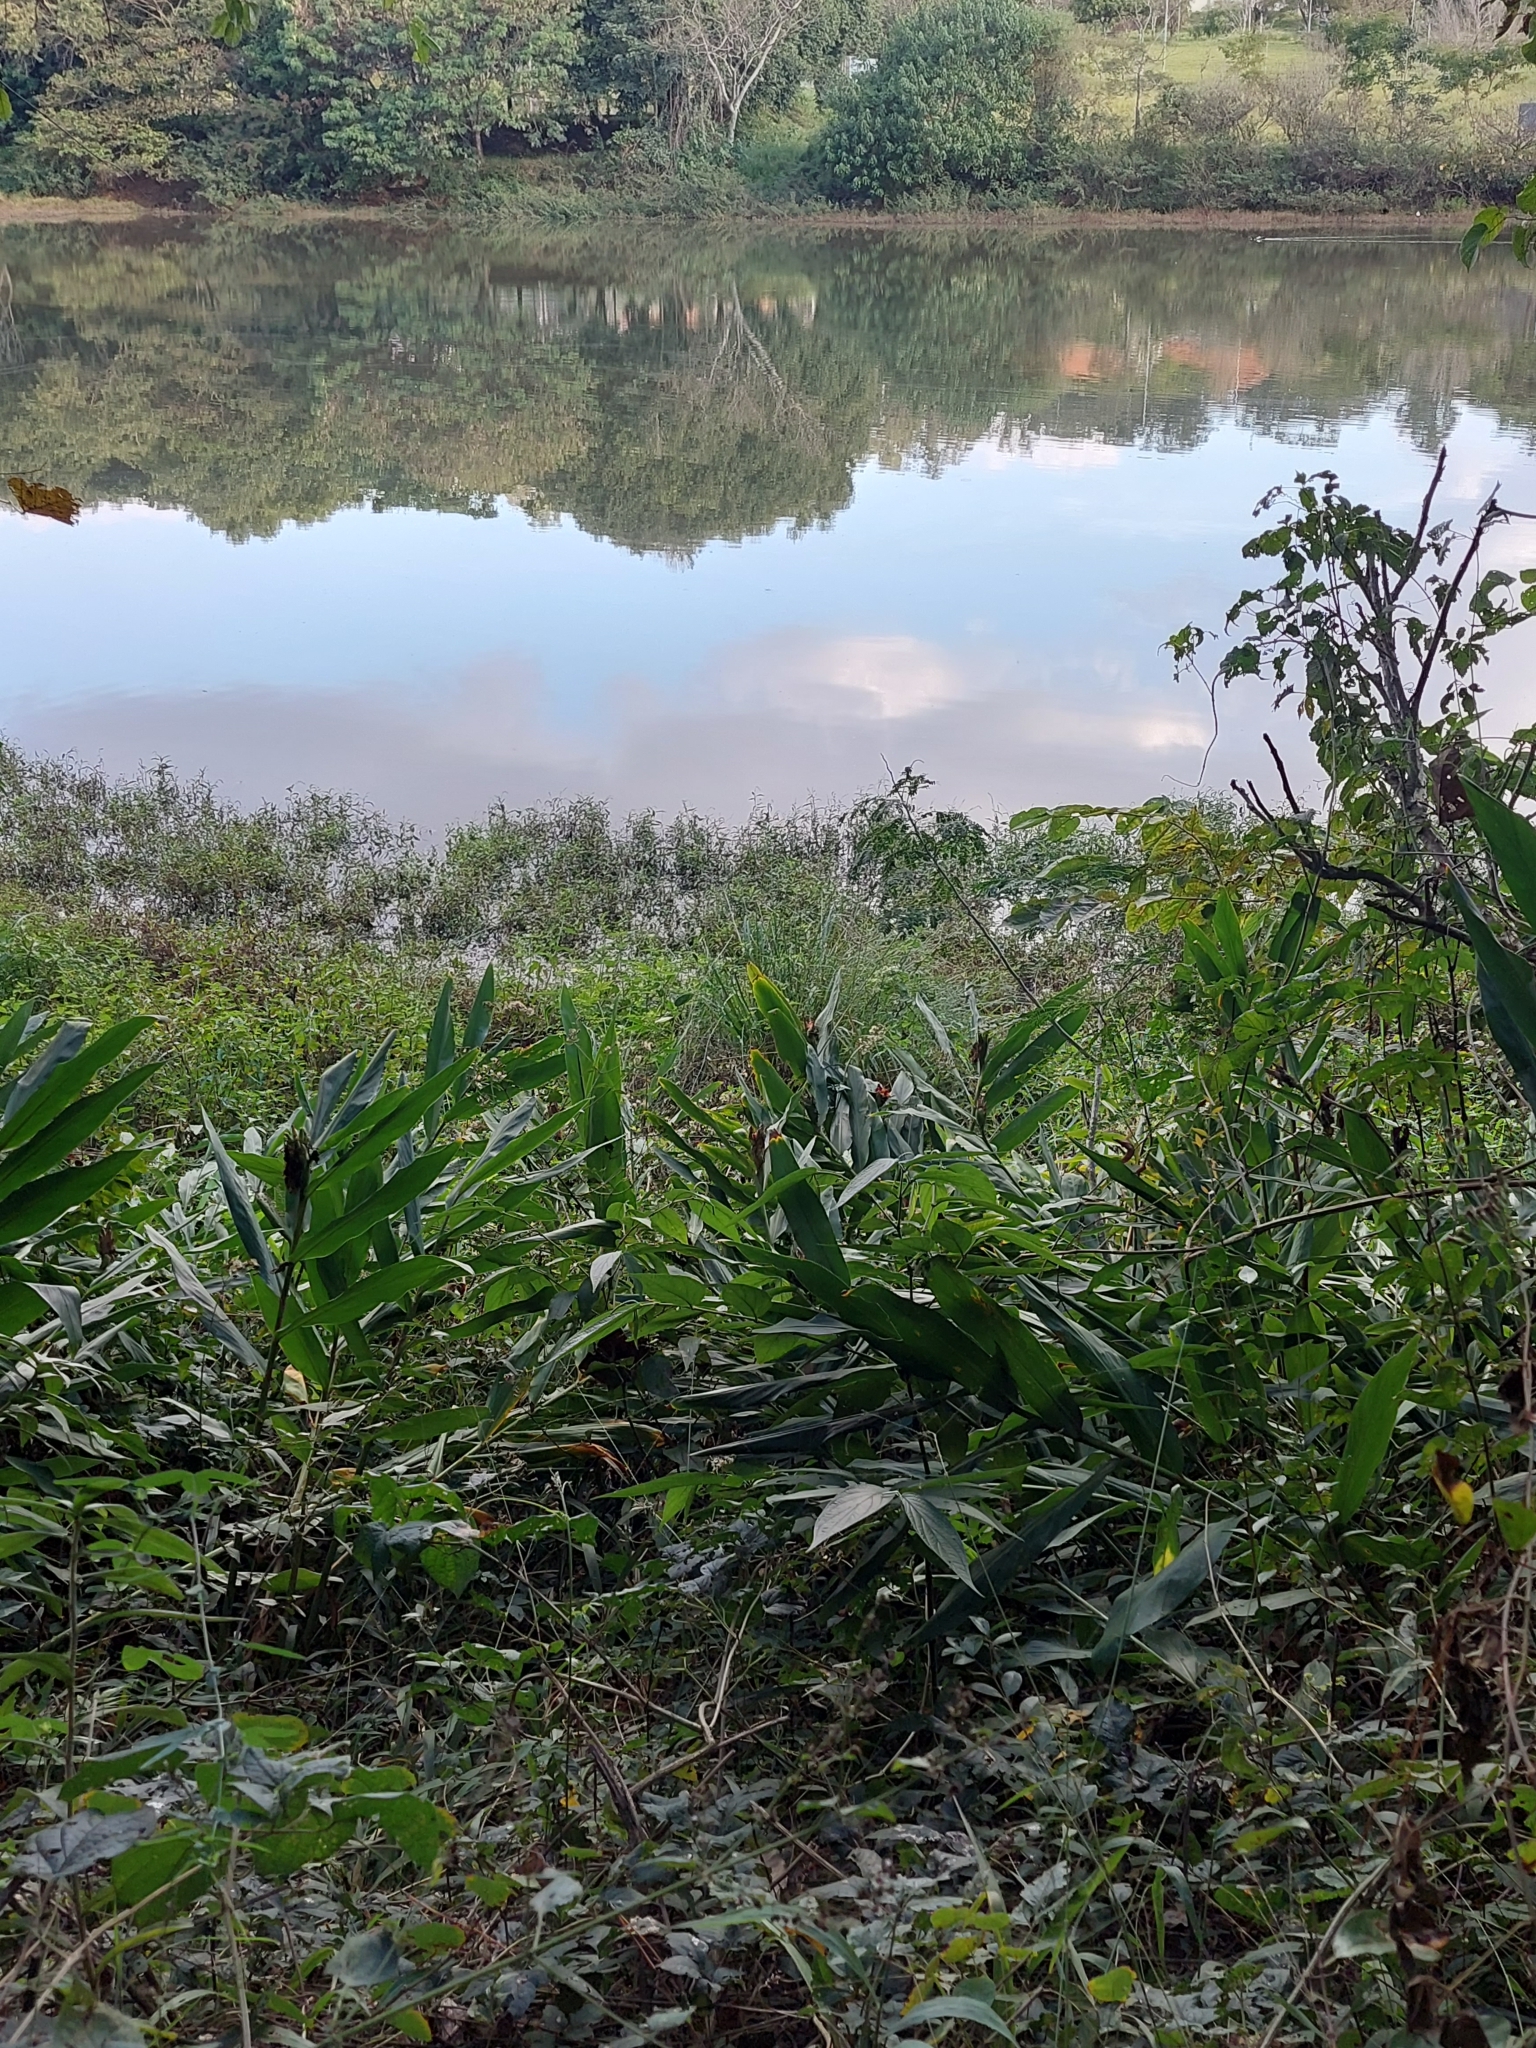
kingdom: Plantae
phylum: Tracheophyta
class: Liliopsida
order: Zingiberales
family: Zingiberaceae
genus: Hedychium
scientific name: Hedychium coronarium
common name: White garland-lily
